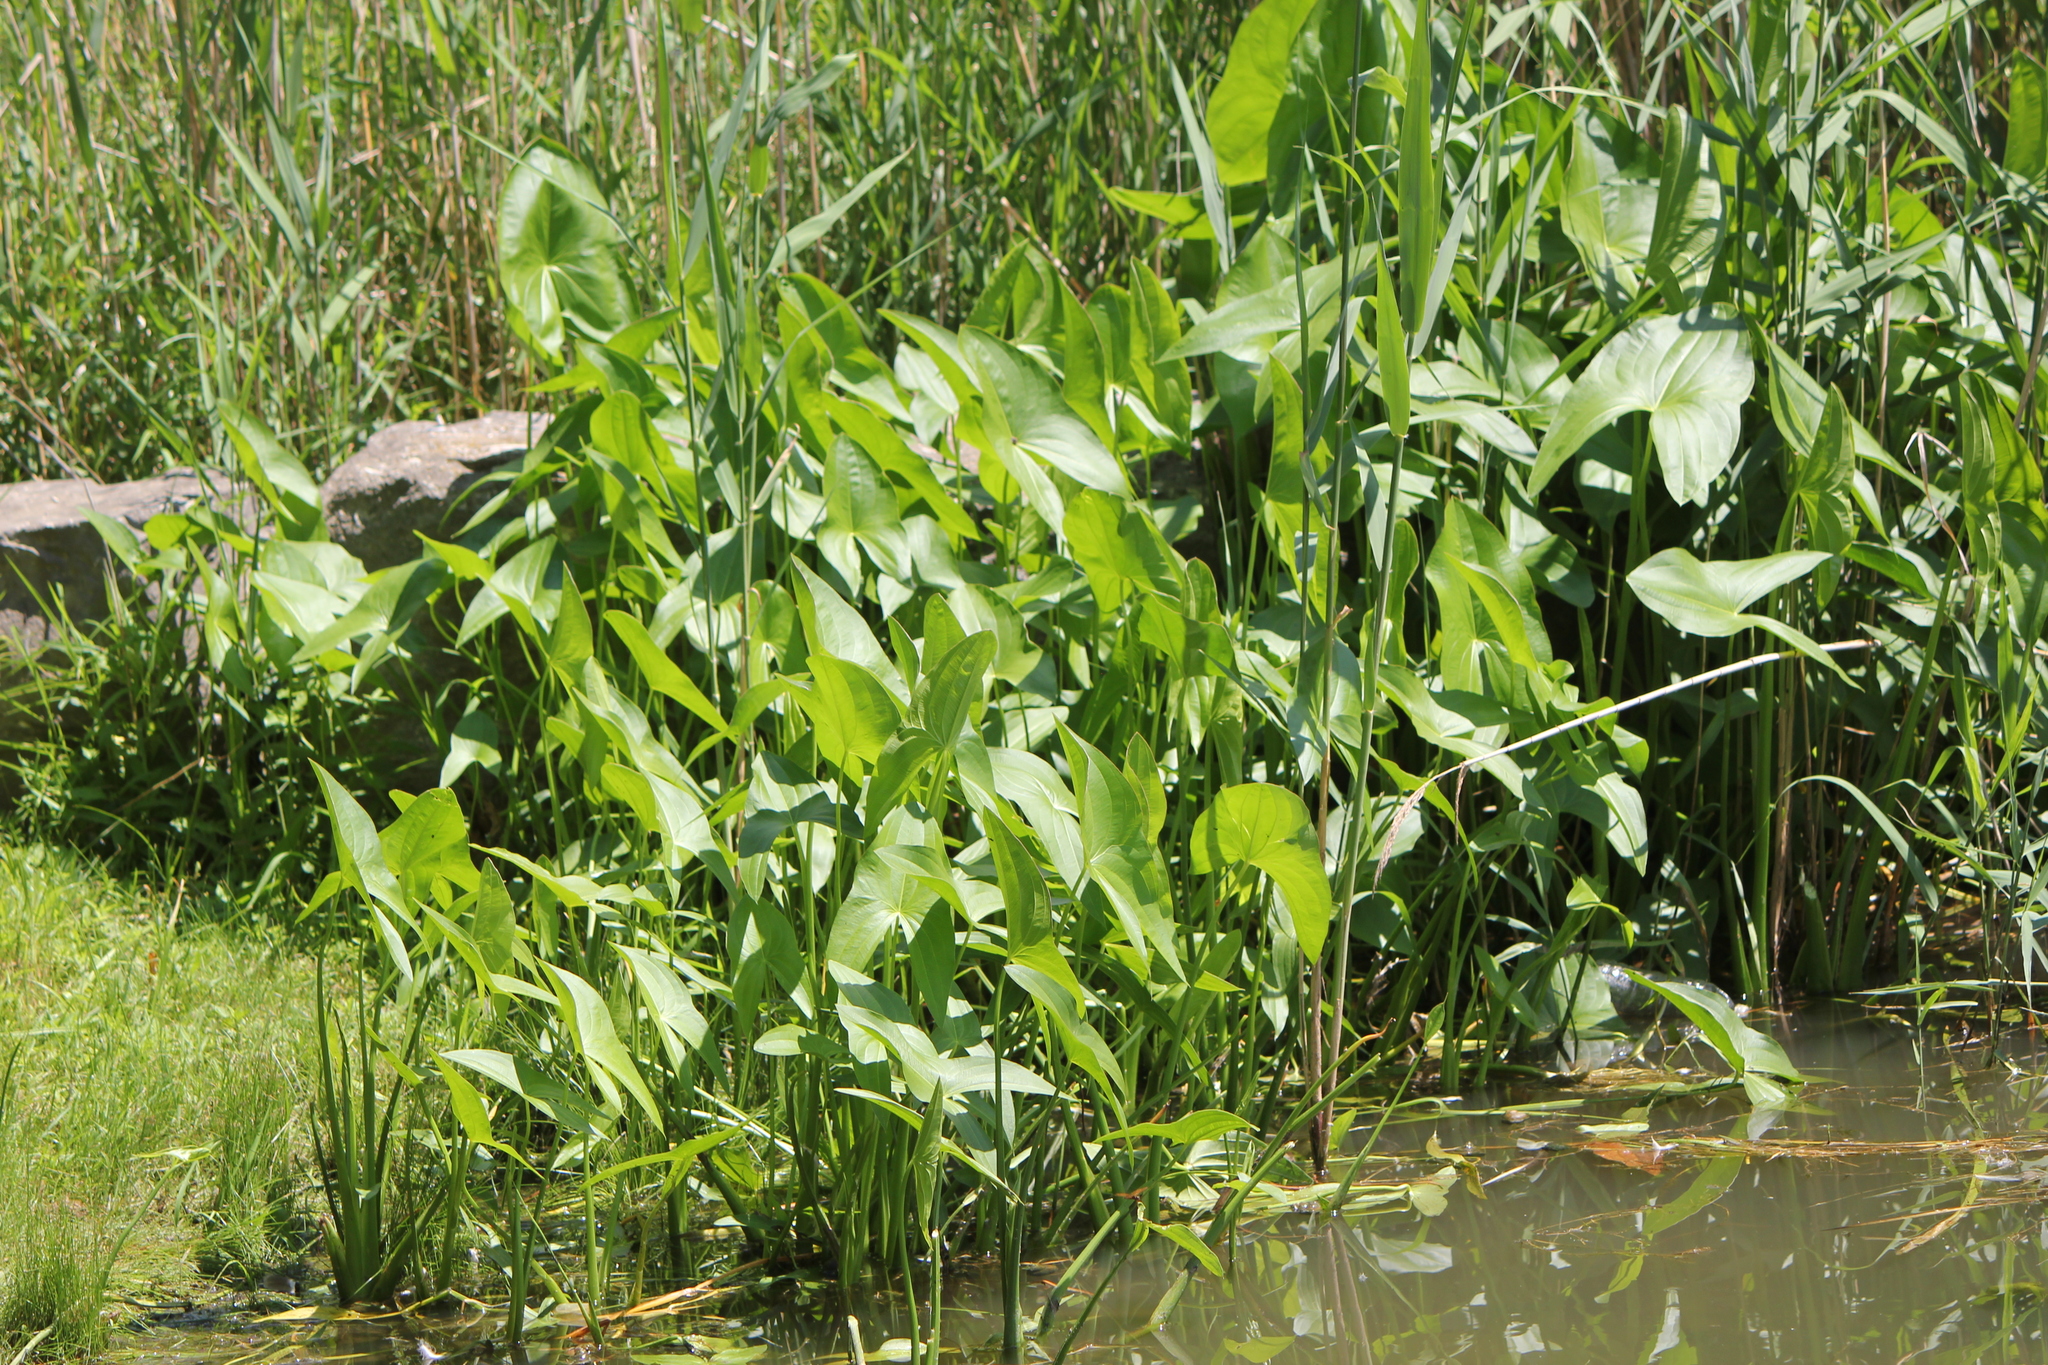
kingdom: Plantae
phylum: Tracheophyta
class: Liliopsida
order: Alismatales
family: Alismataceae
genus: Sagittaria
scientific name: Sagittaria latifolia
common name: Duck-potato
